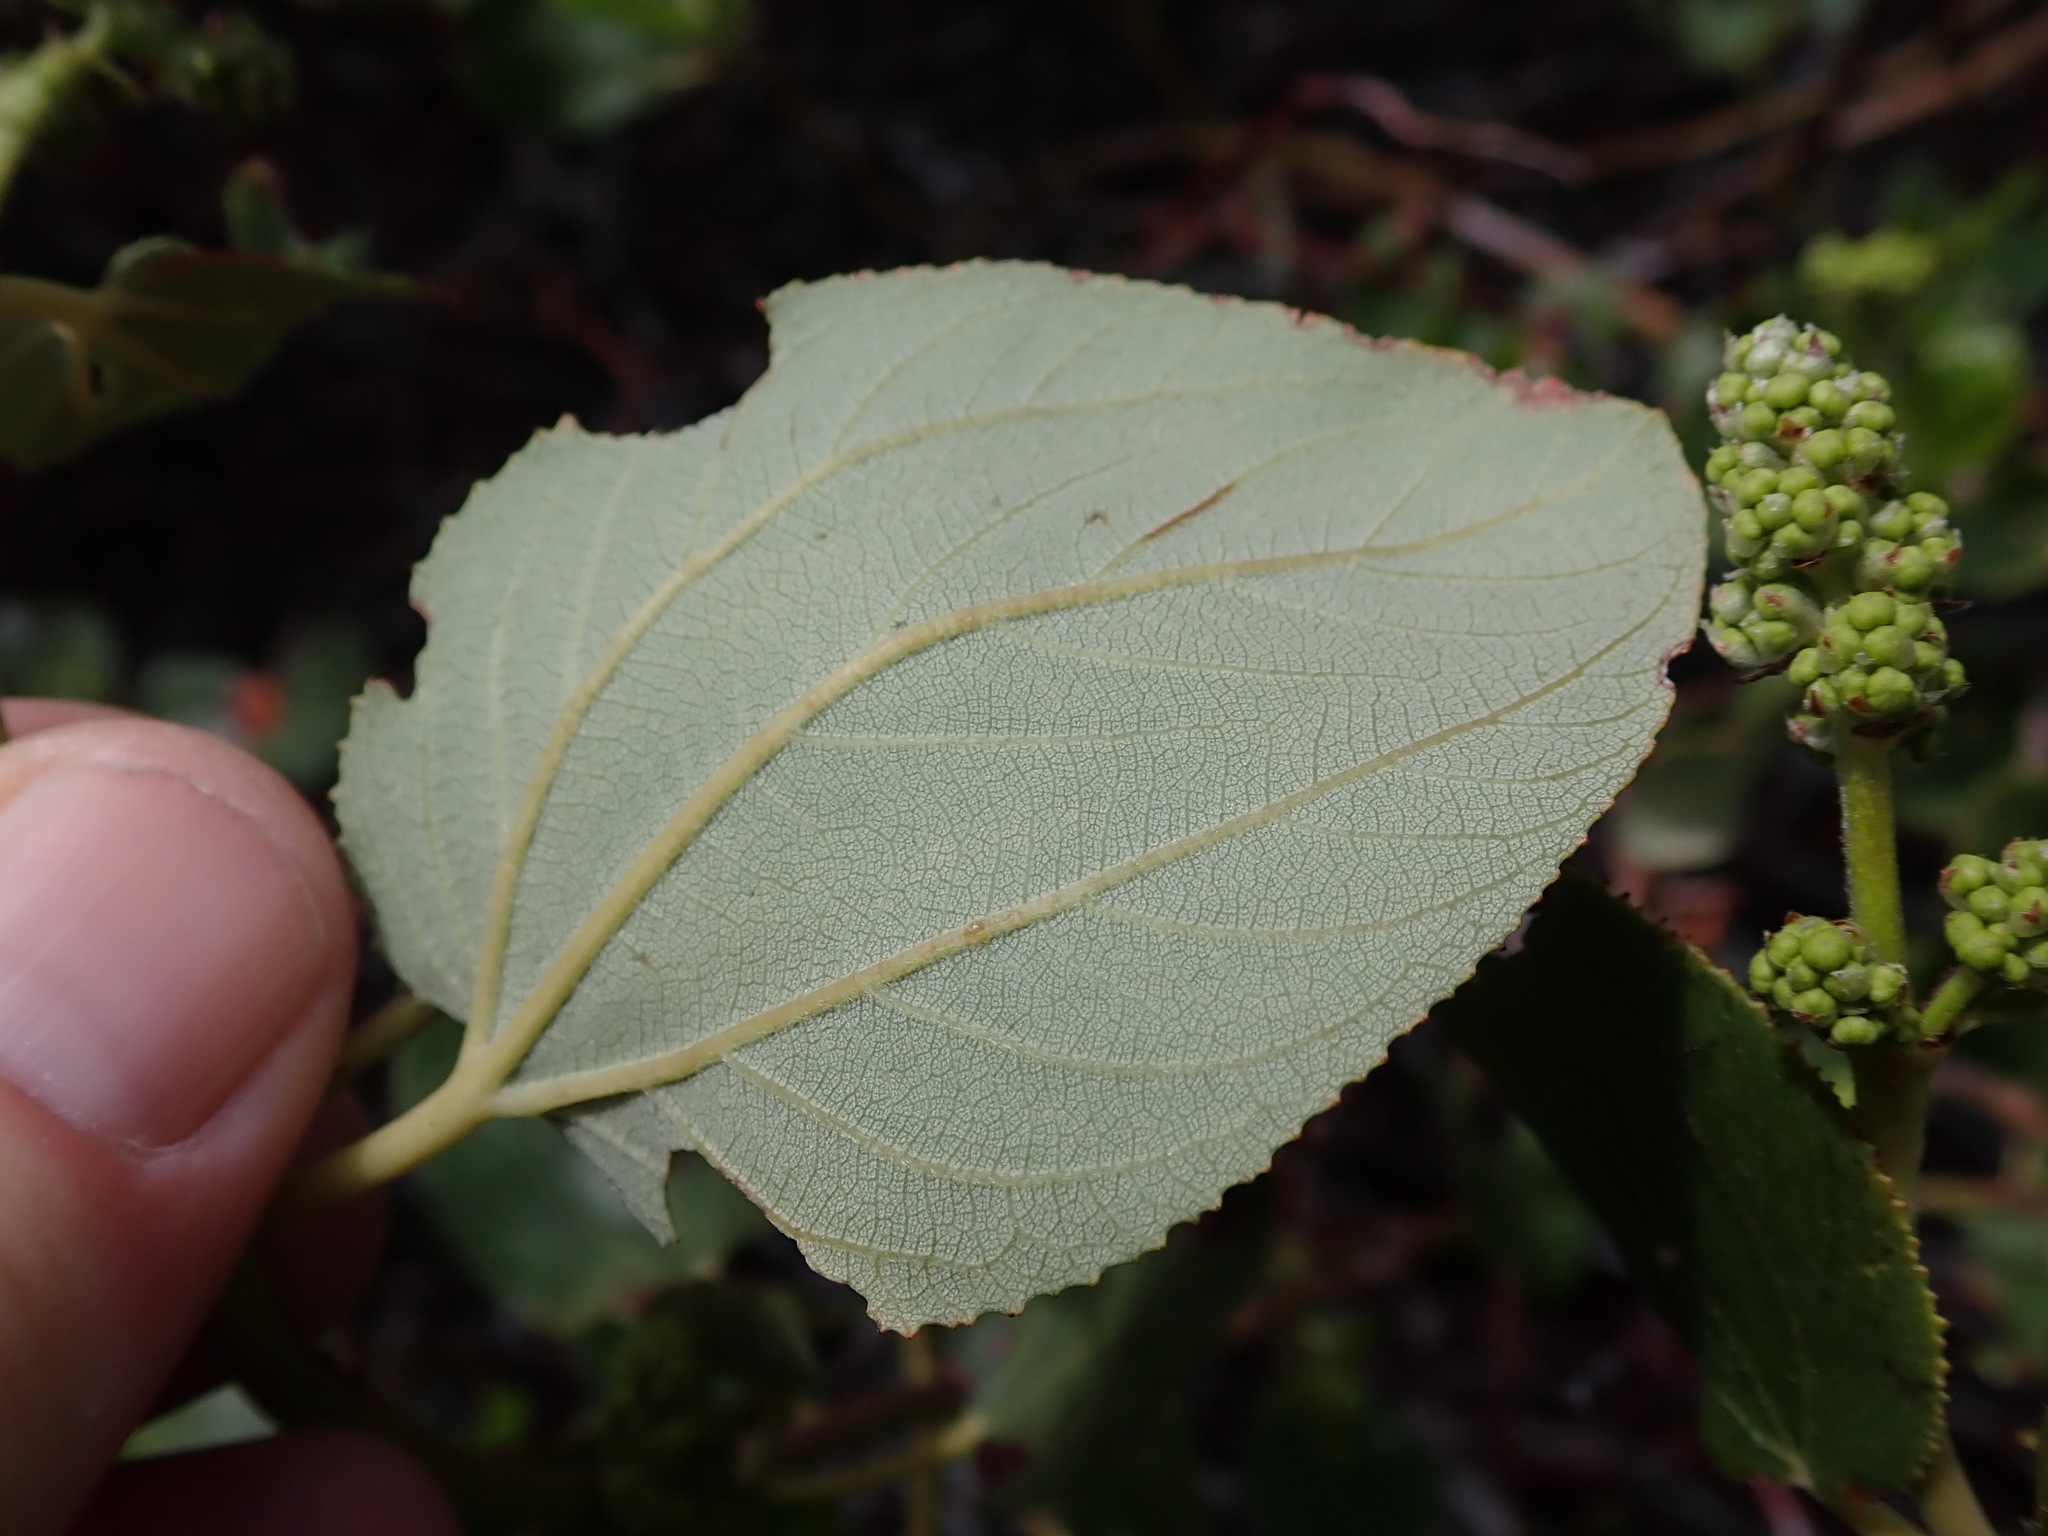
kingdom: Plantae
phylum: Tracheophyta
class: Magnoliopsida
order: Rosales
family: Rhamnaceae
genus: Ceanothus
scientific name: Ceanothus velutinus
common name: Snowbrush
